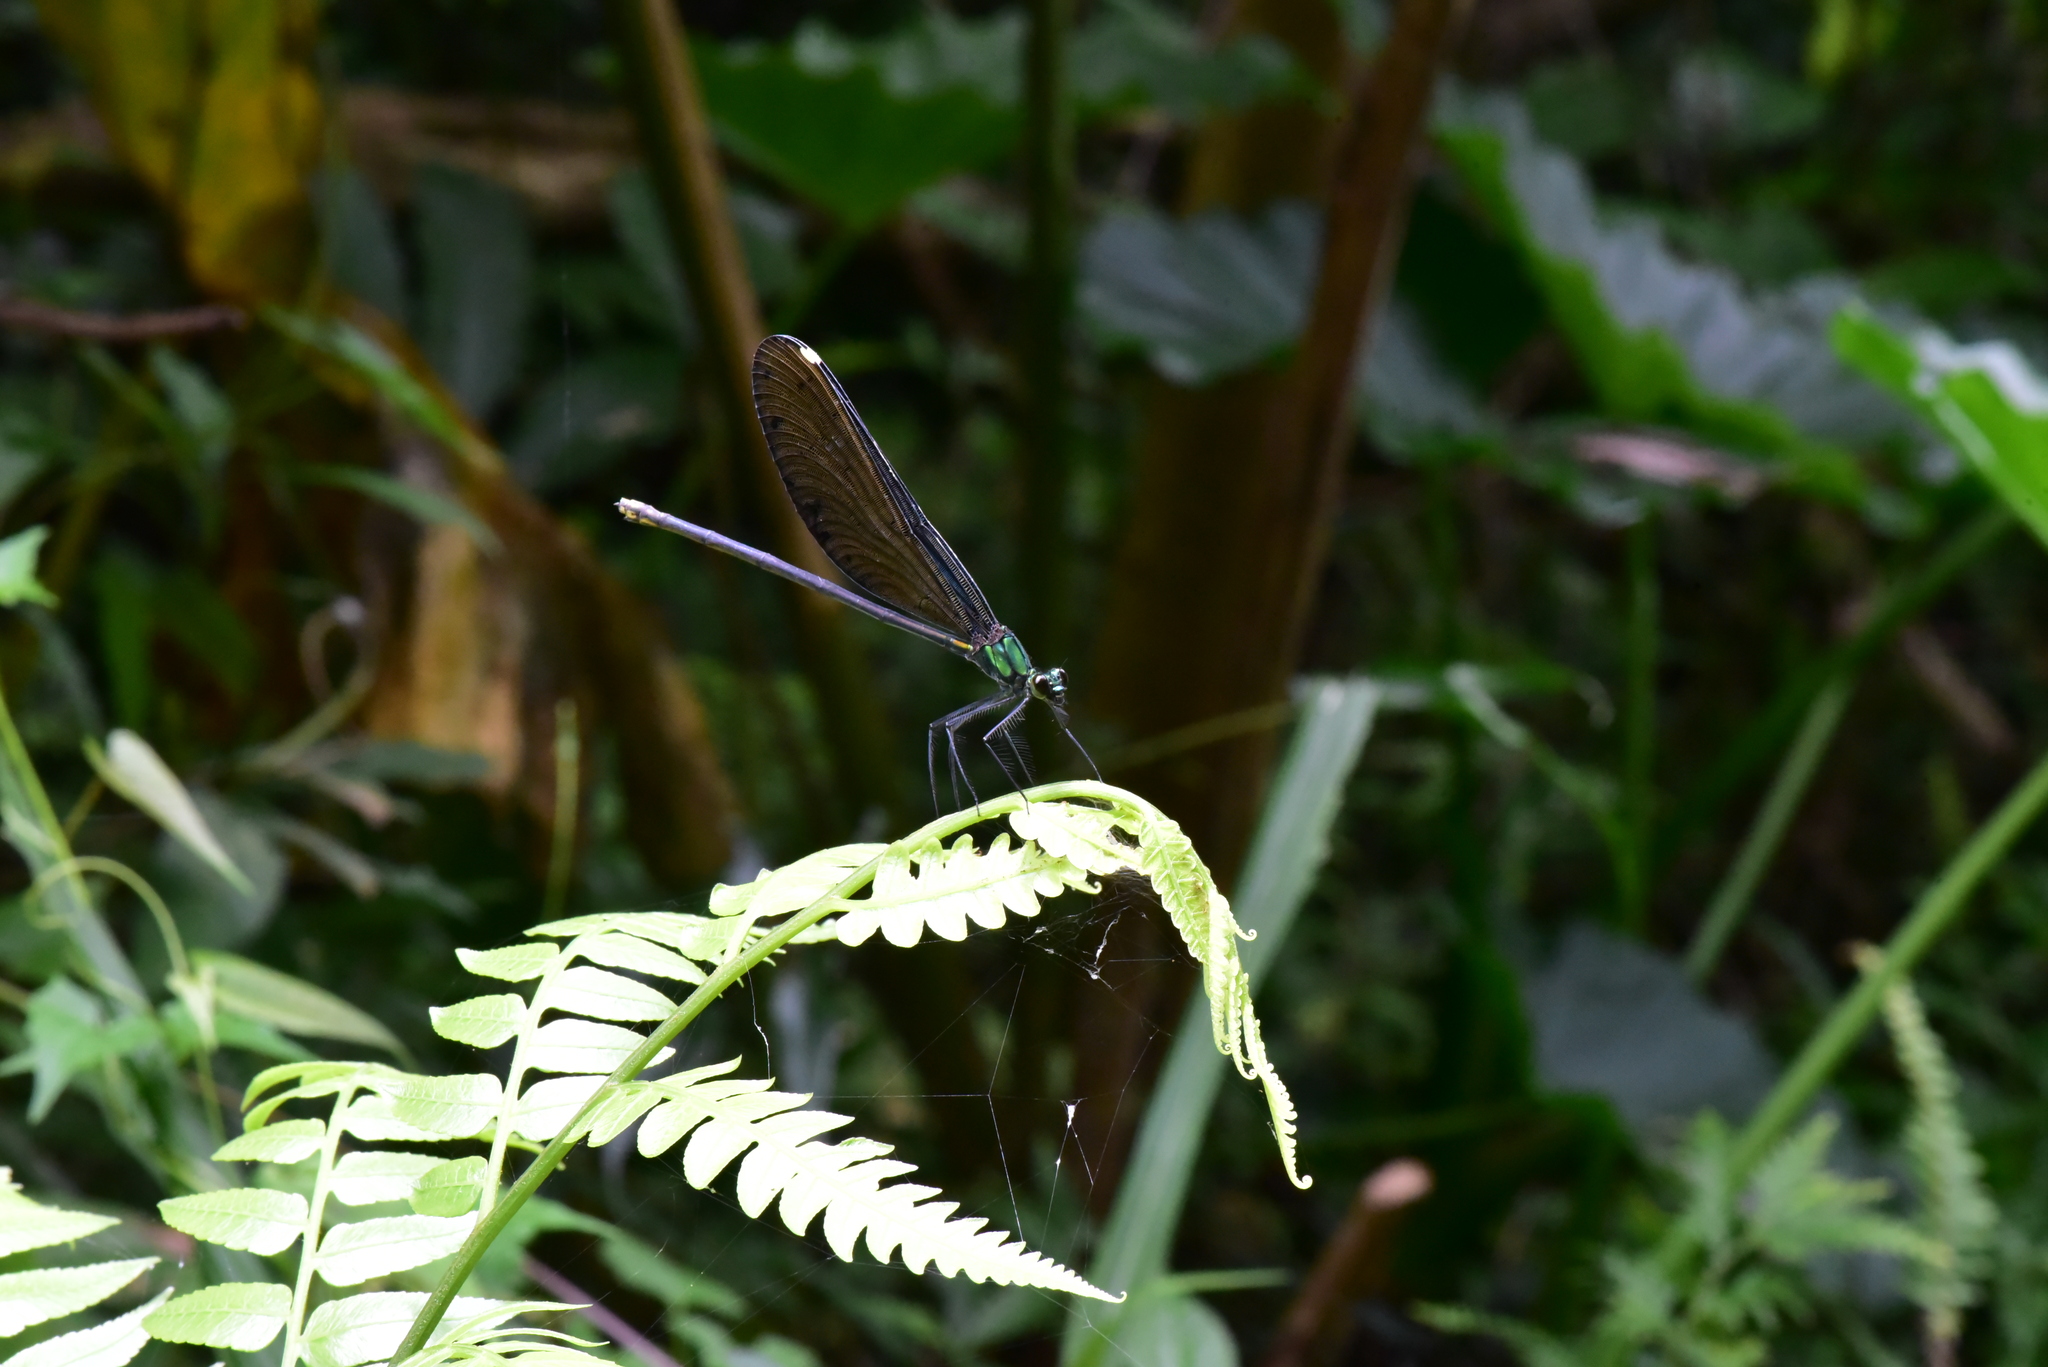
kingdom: Animalia
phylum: Arthropoda
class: Insecta
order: Odonata
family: Calopterygidae
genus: Matrona
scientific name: Matrona cyanoptera
